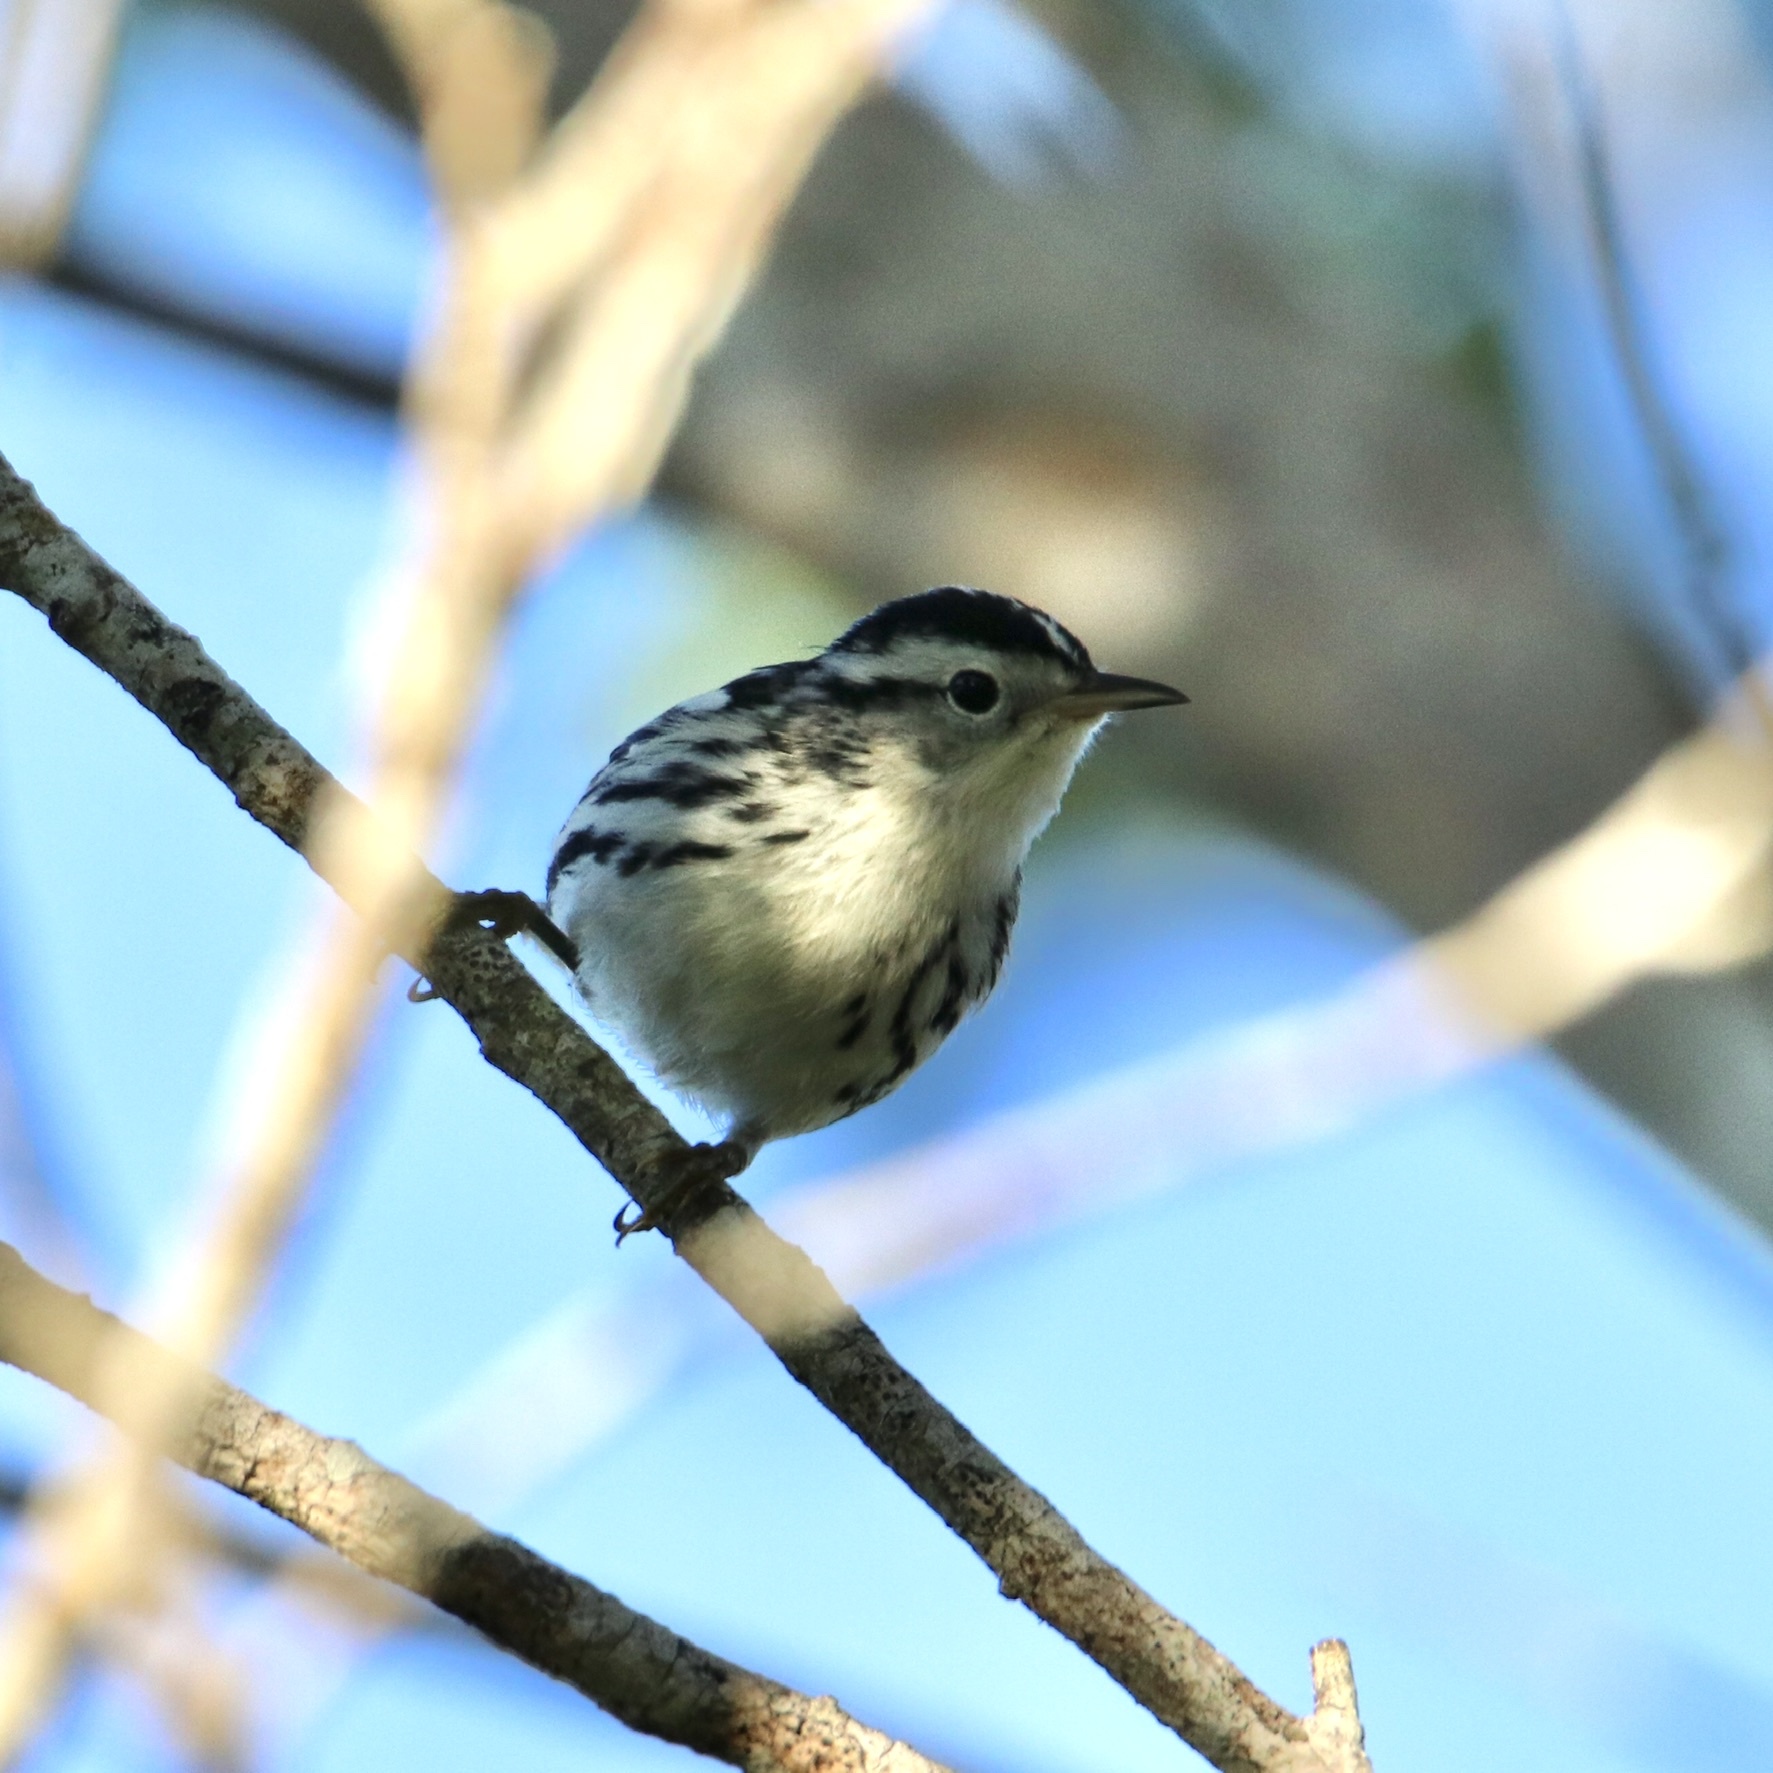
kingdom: Animalia
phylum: Chordata
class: Aves
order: Passeriformes
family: Parulidae
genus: Mniotilta
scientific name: Mniotilta varia
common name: Black-and-white warbler
